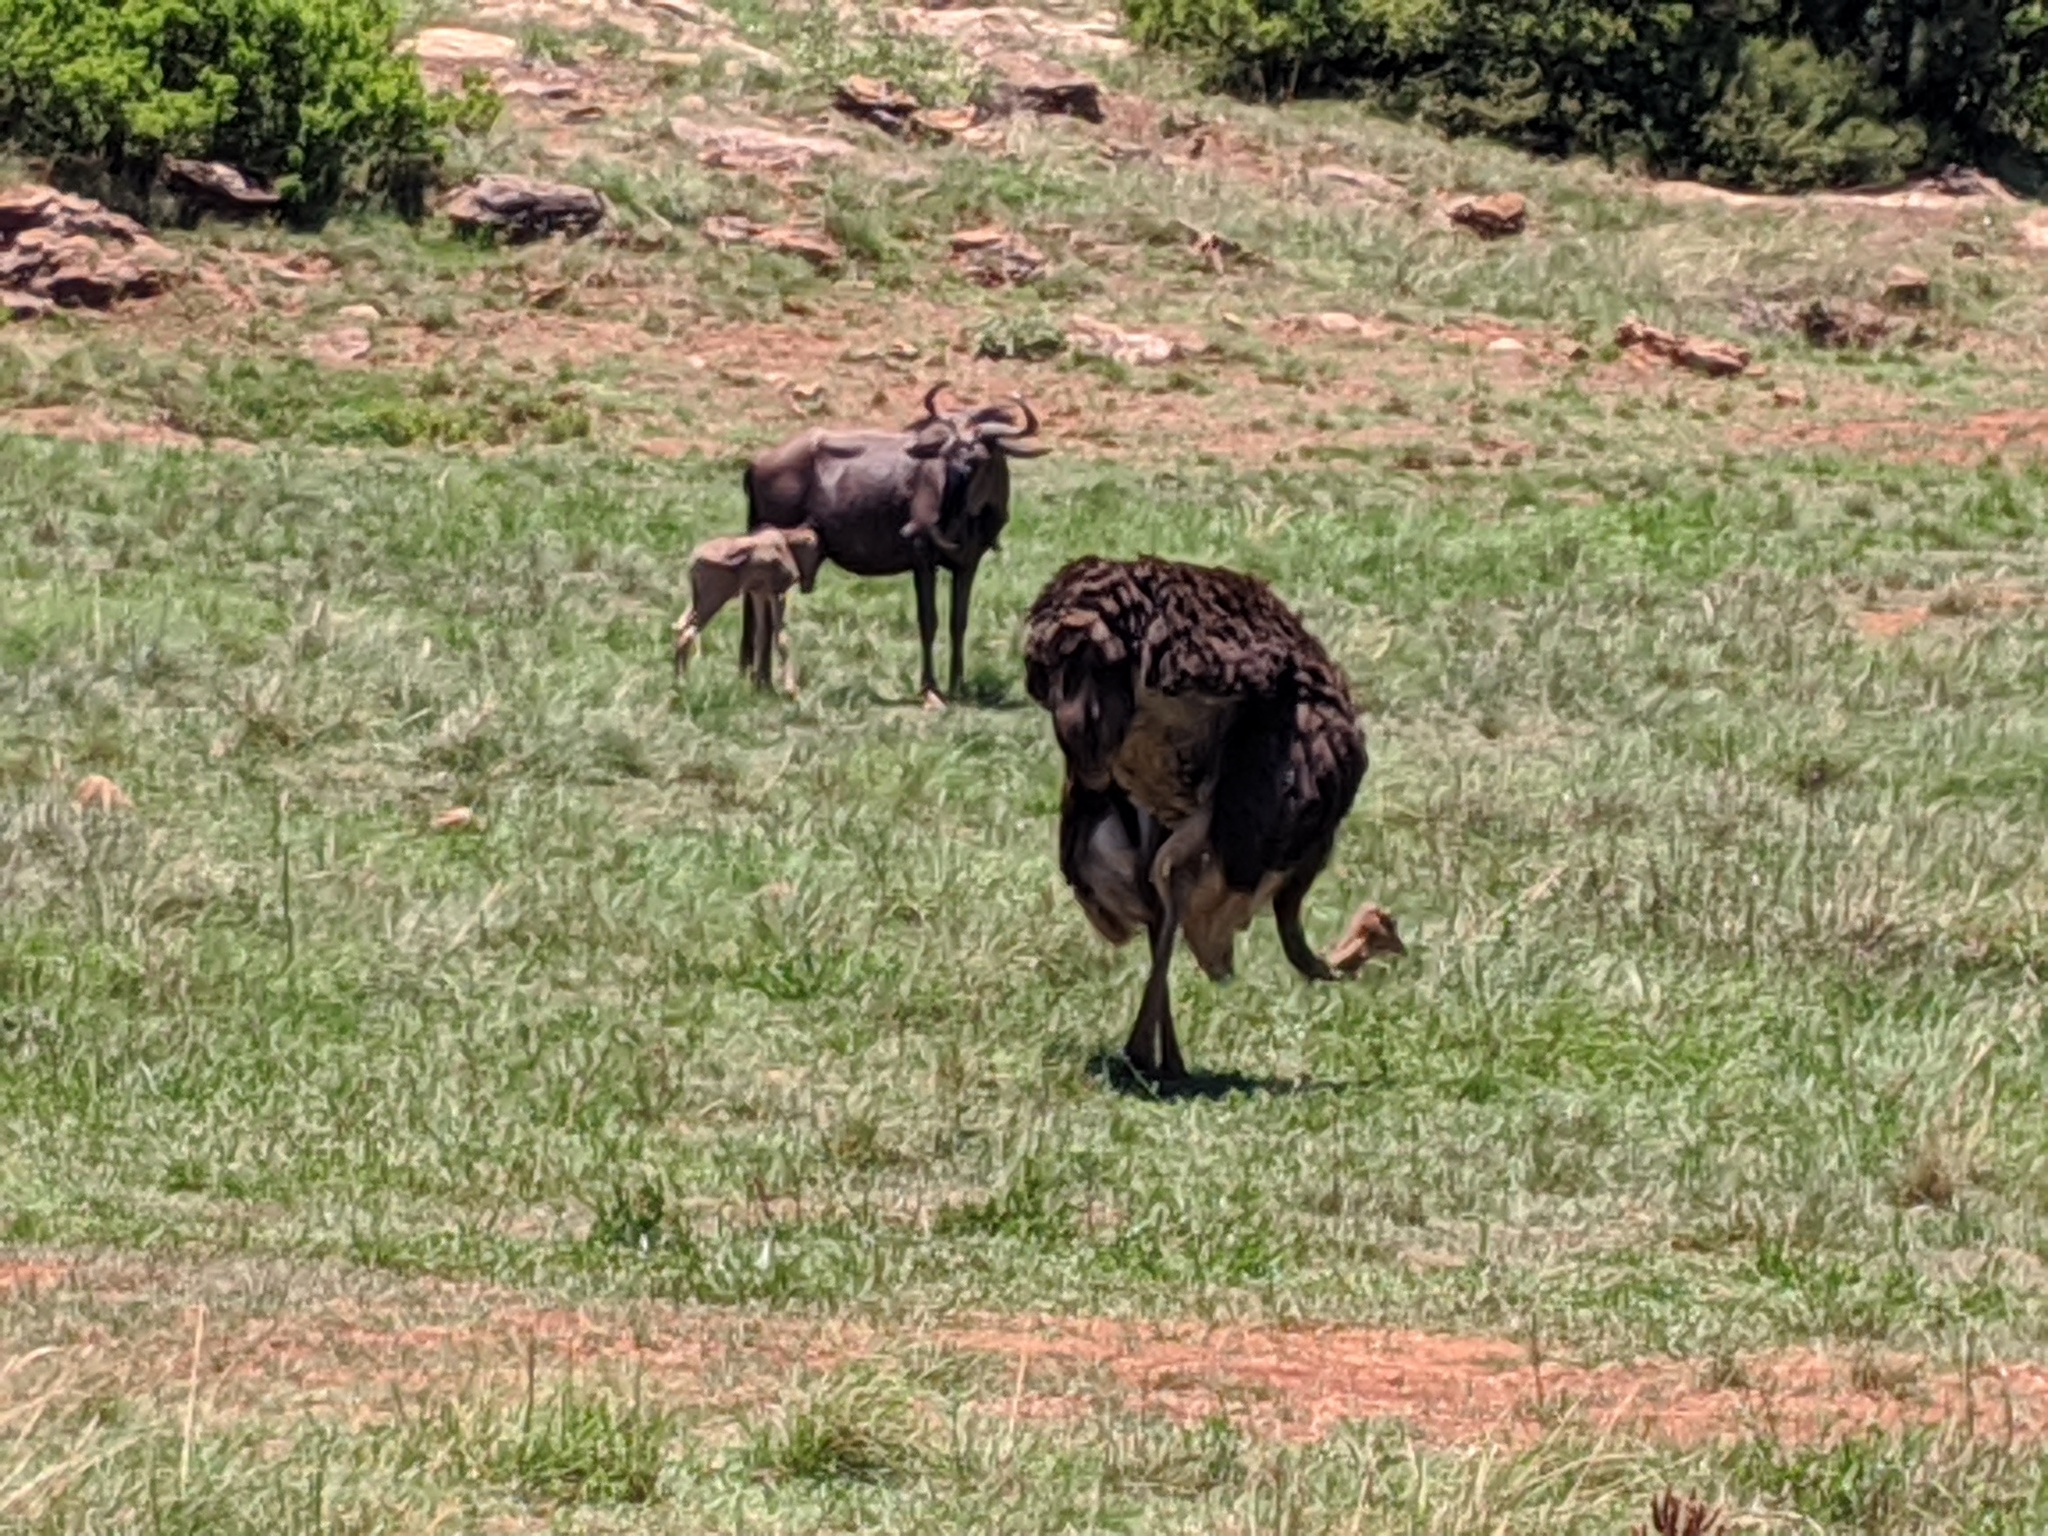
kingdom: Animalia
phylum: Chordata
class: Aves
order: Struthioniformes
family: Struthionidae
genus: Struthio
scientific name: Struthio camelus
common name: Common ostrich
